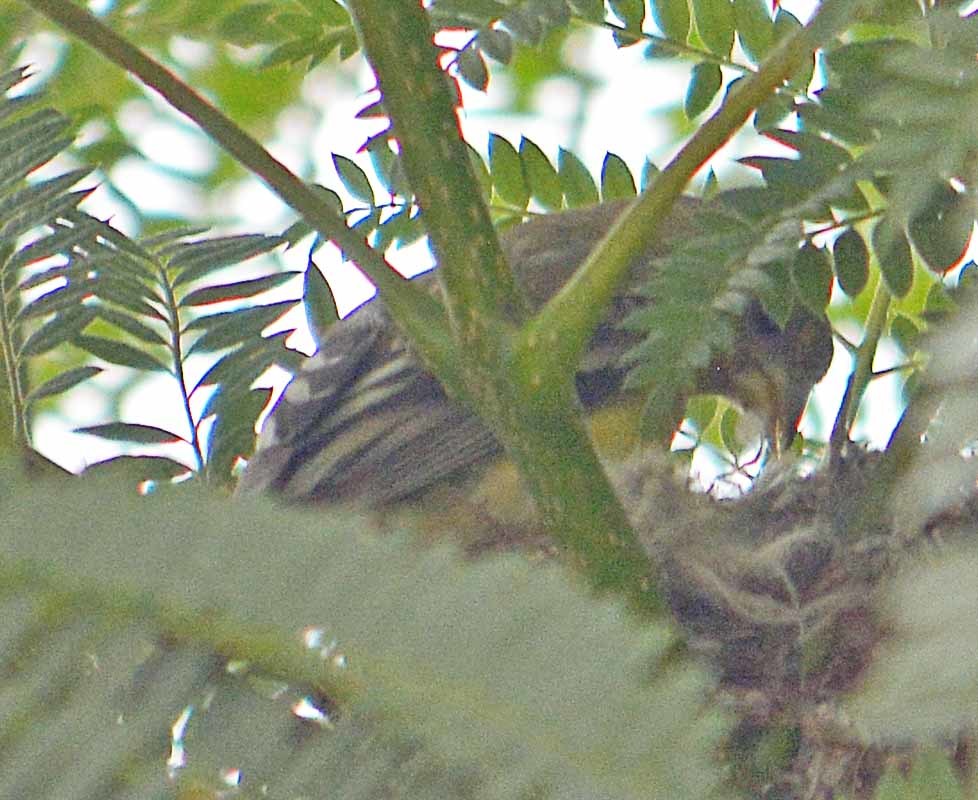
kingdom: Animalia
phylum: Chordata
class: Aves
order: Passeriformes
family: Fringillidae
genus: Spinus
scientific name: Spinus psaltria
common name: Lesser goldfinch
